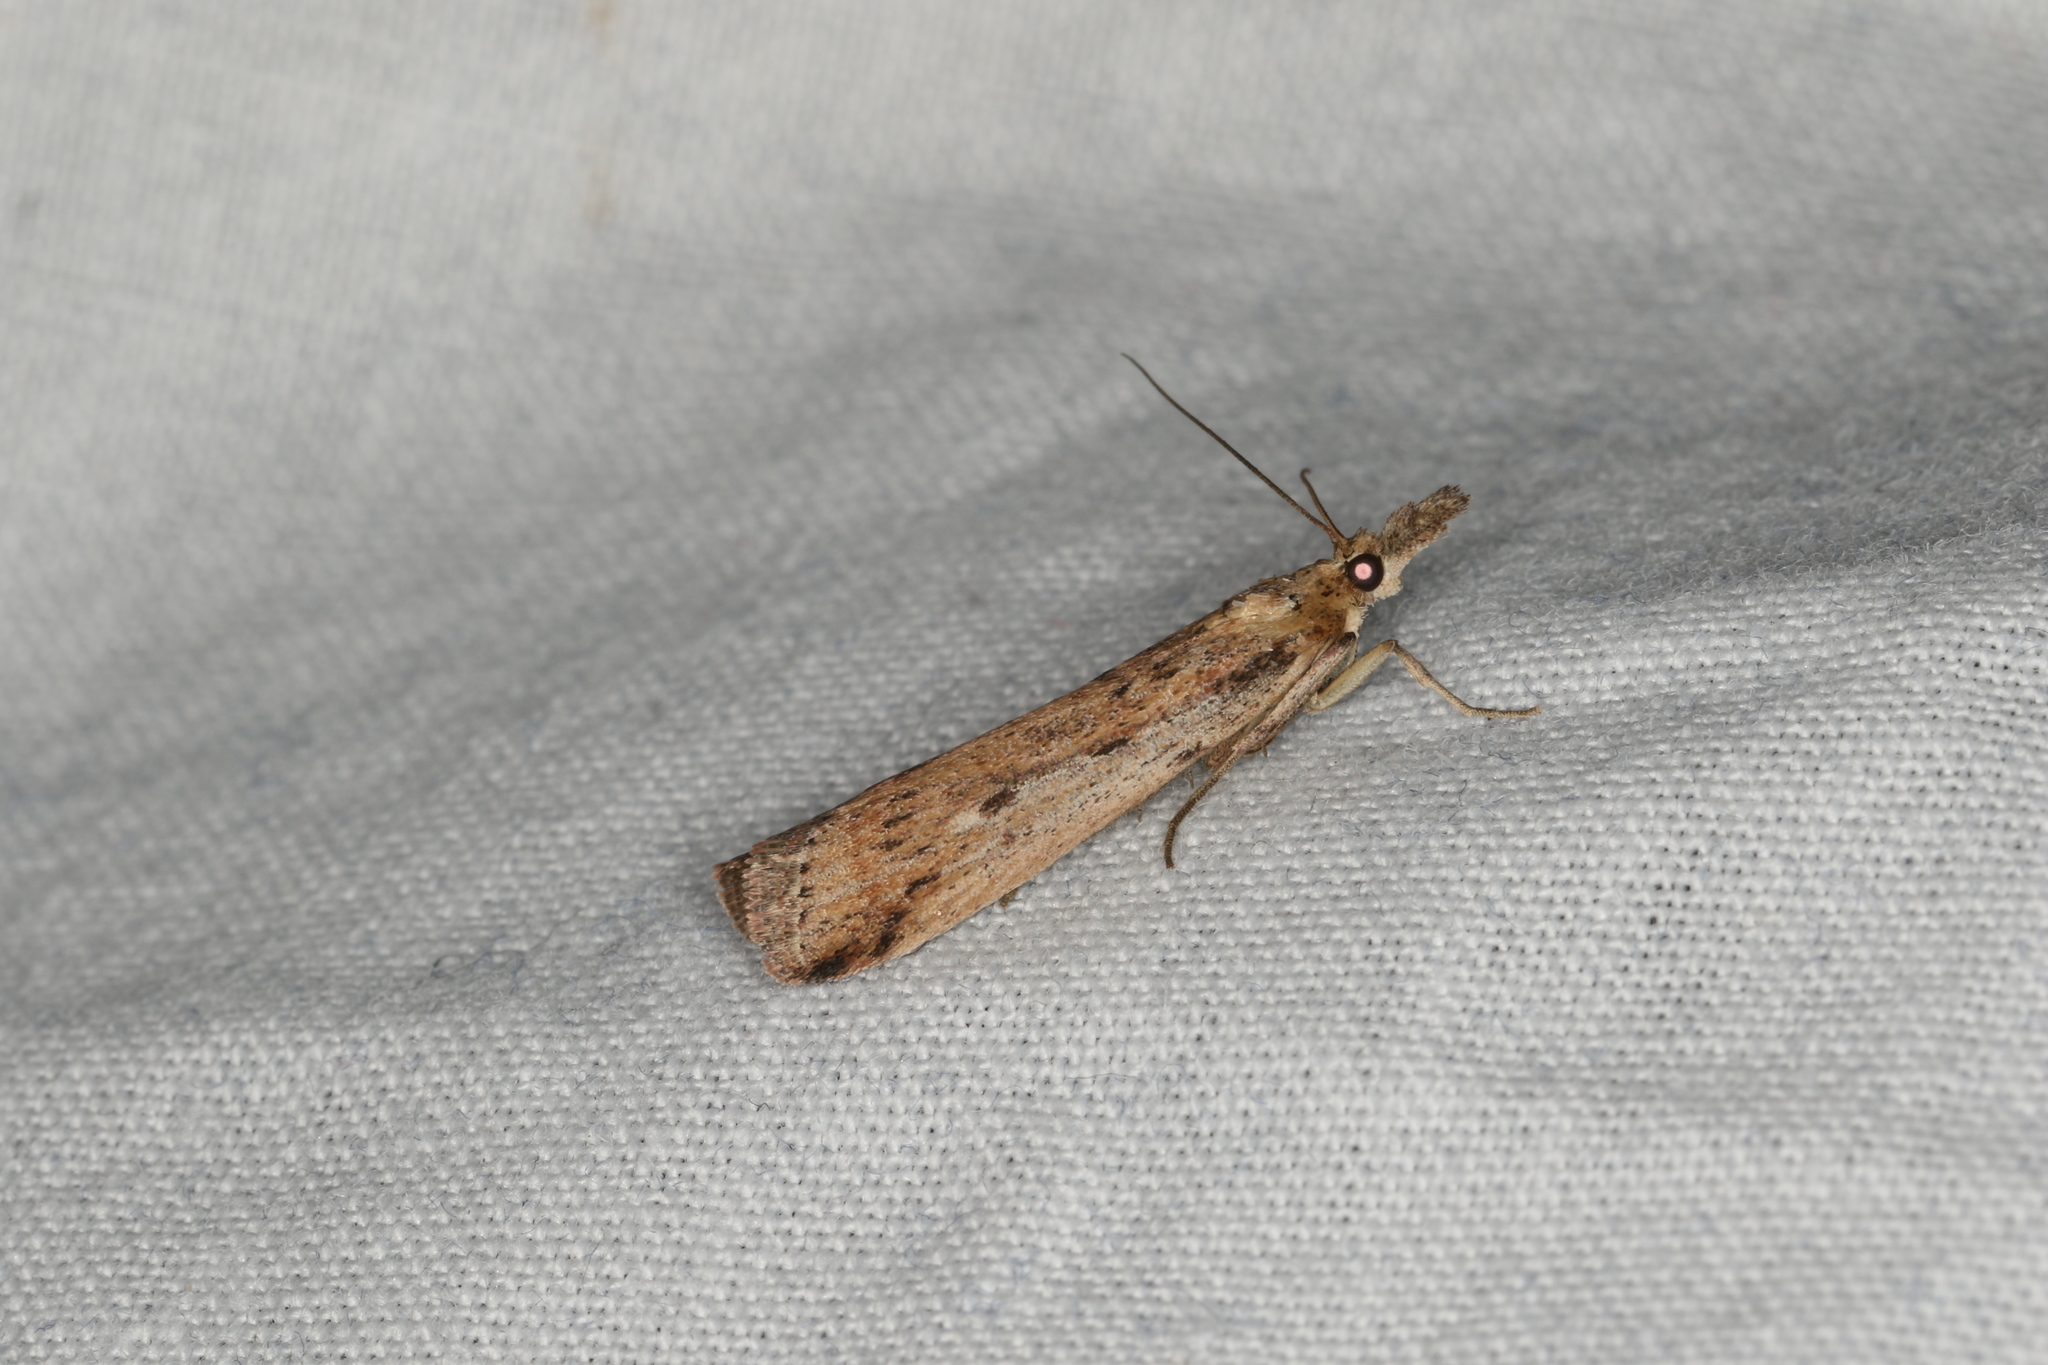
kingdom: Animalia
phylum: Arthropoda
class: Insecta
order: Lepidoptera
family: Pyralidae
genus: Faveria
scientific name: Faveria tritalis
